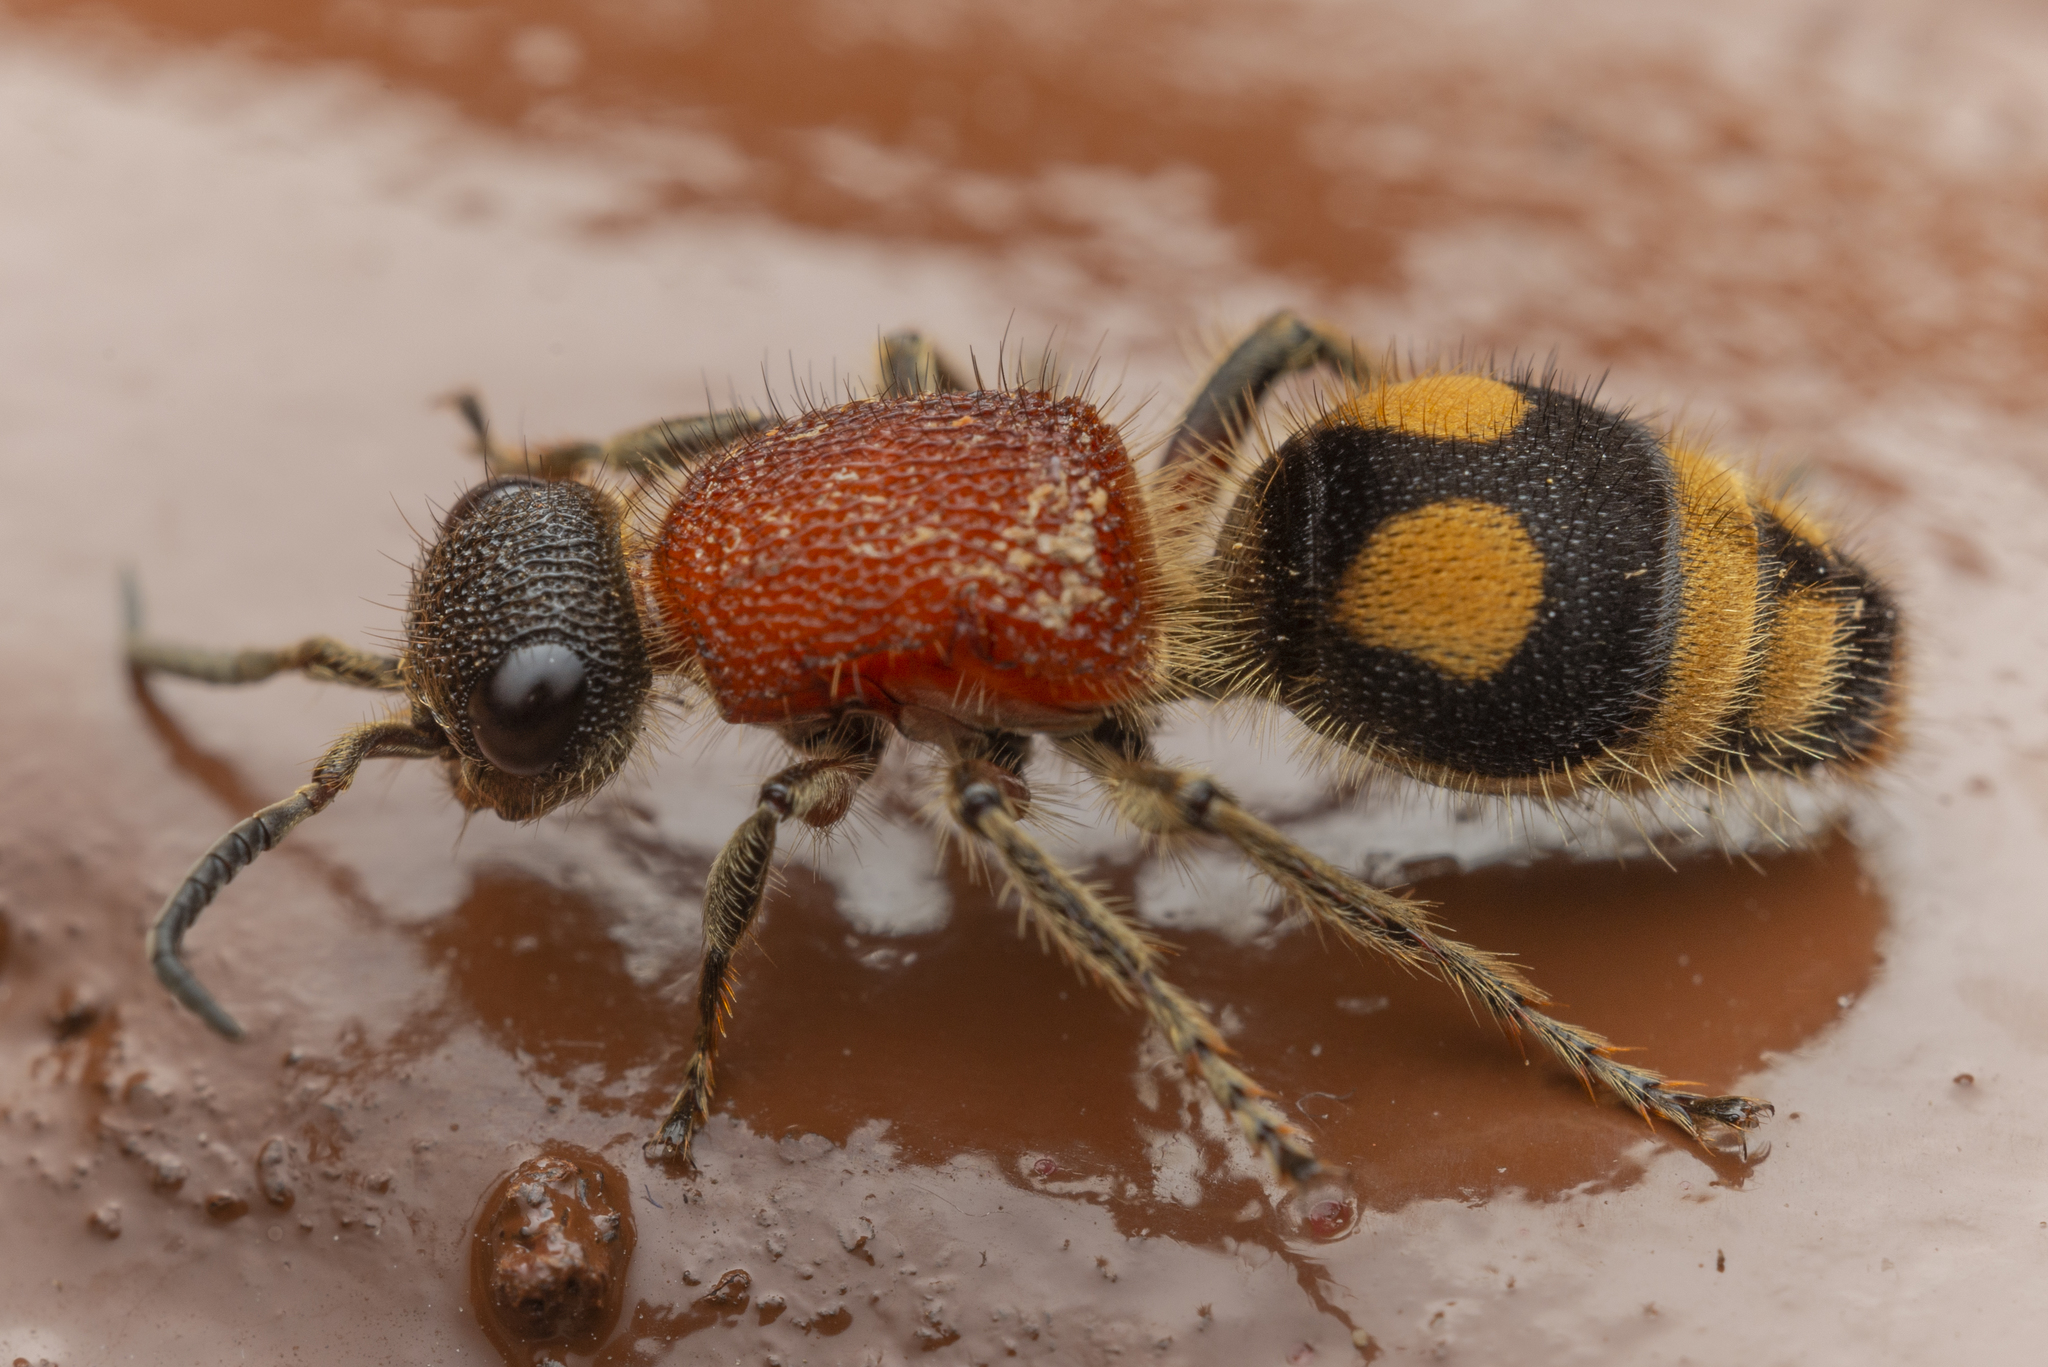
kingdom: Animalia
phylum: Arthropoda
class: Insecta
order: Hymenoptera
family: Mutillidae
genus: Mutilla
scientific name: Mutilla oculata
